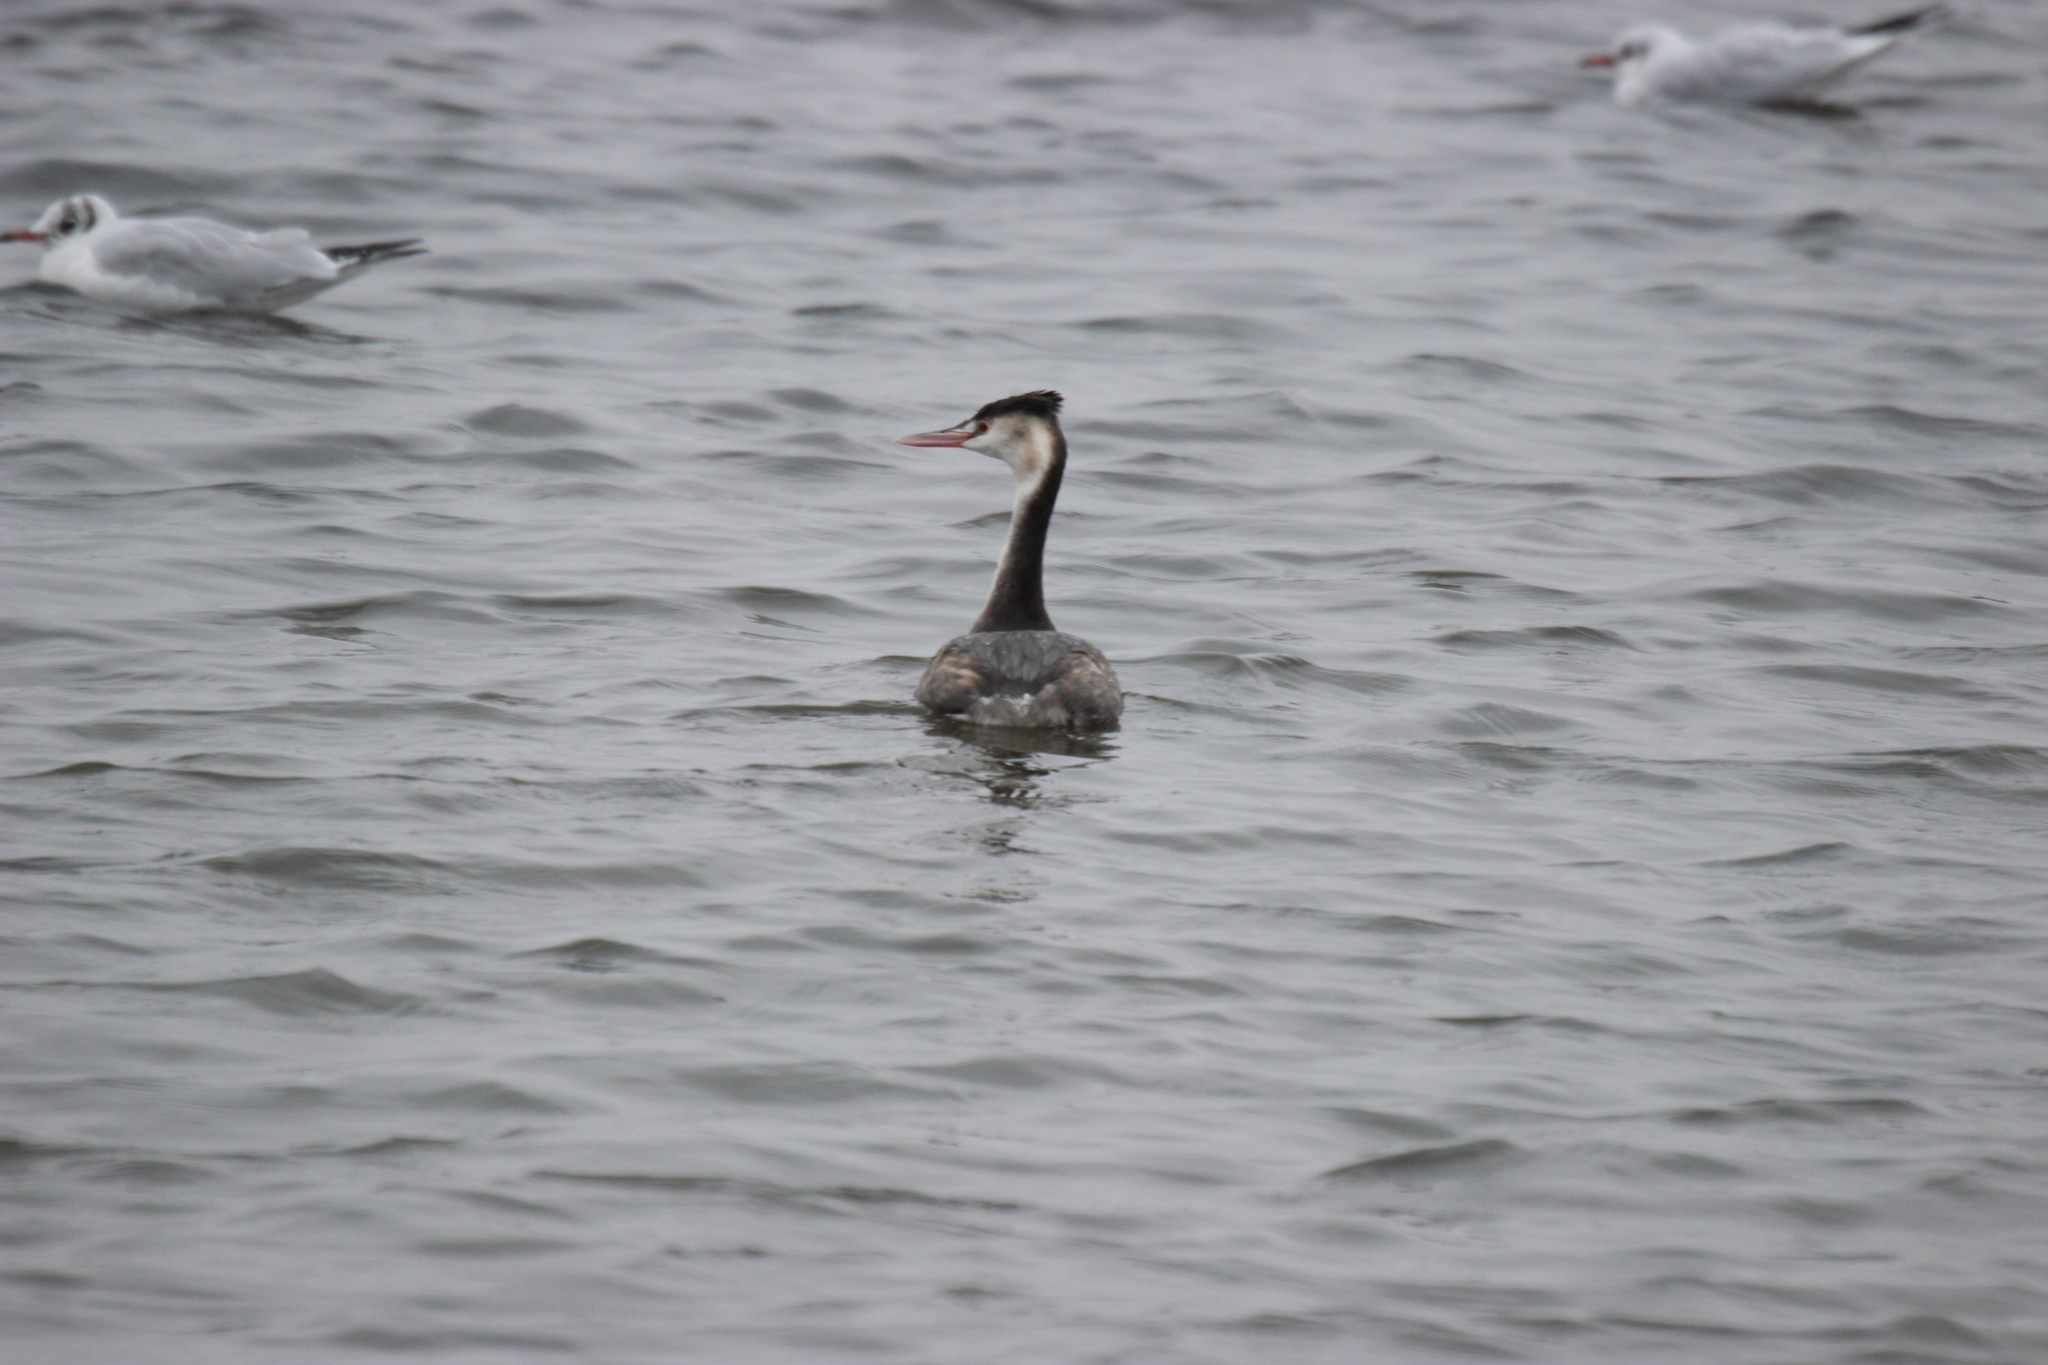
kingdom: Animalia
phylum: Chordata
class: Aves
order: Podicipediformes
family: Podicipedidae
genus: Podiceps
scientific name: Podiceps cristatus
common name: Great crested grebe
